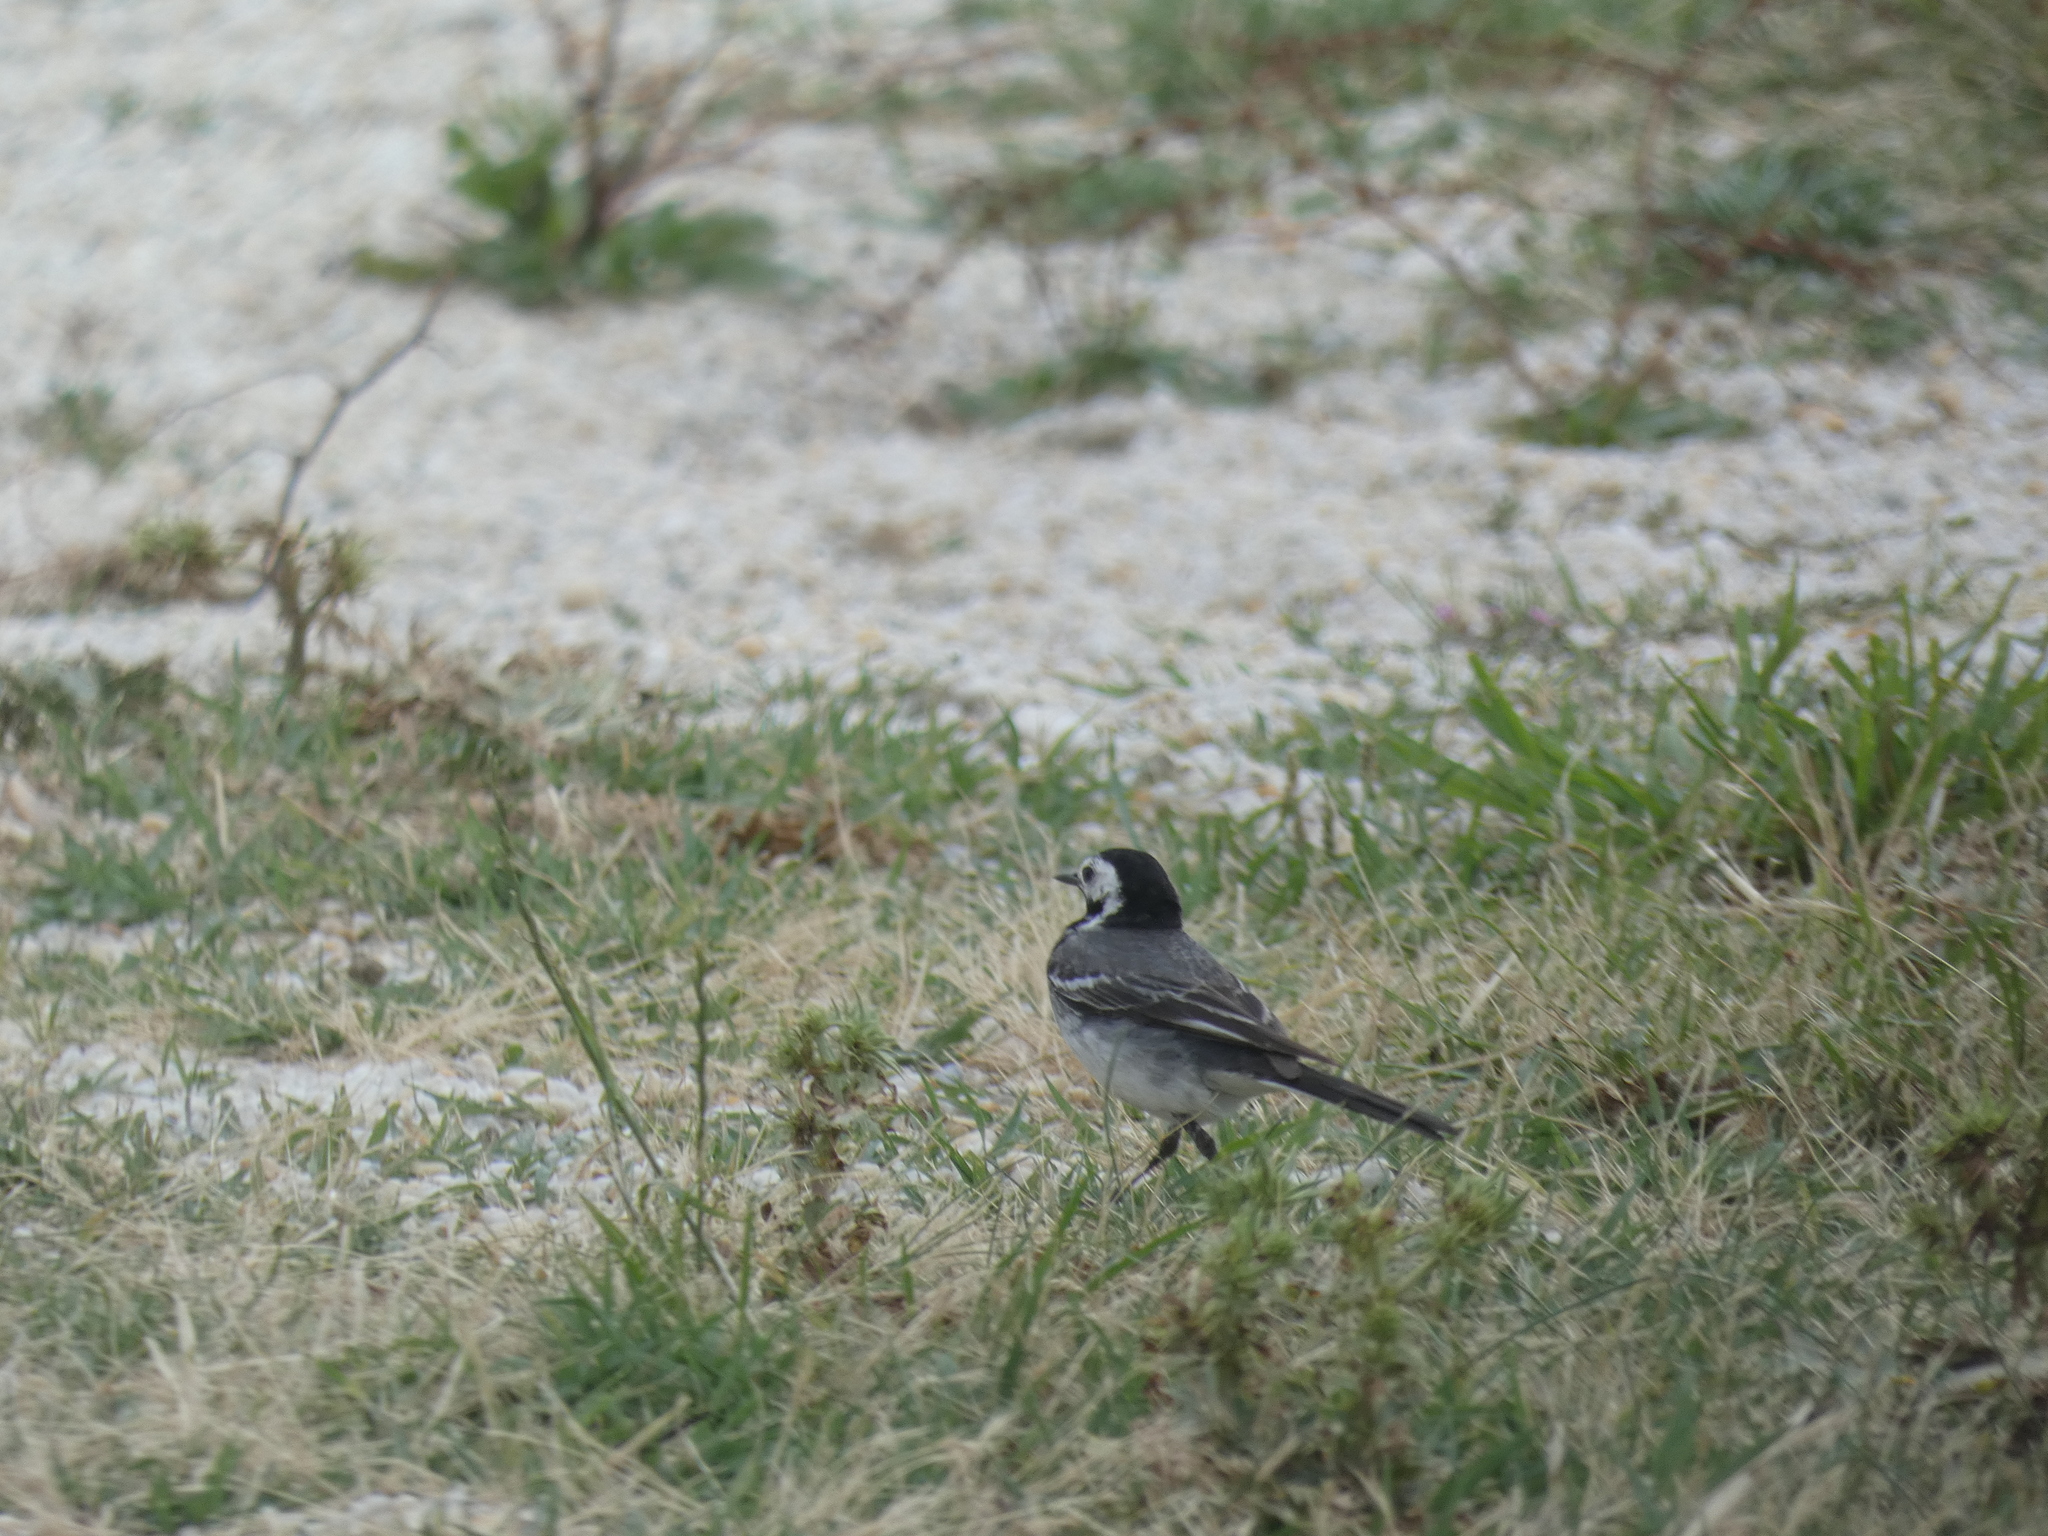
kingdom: Animalia
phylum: Chordata
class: Aves
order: Passeriformes
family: Motacillidae
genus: Motacilla
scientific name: Motacilla alba
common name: White wagtail
